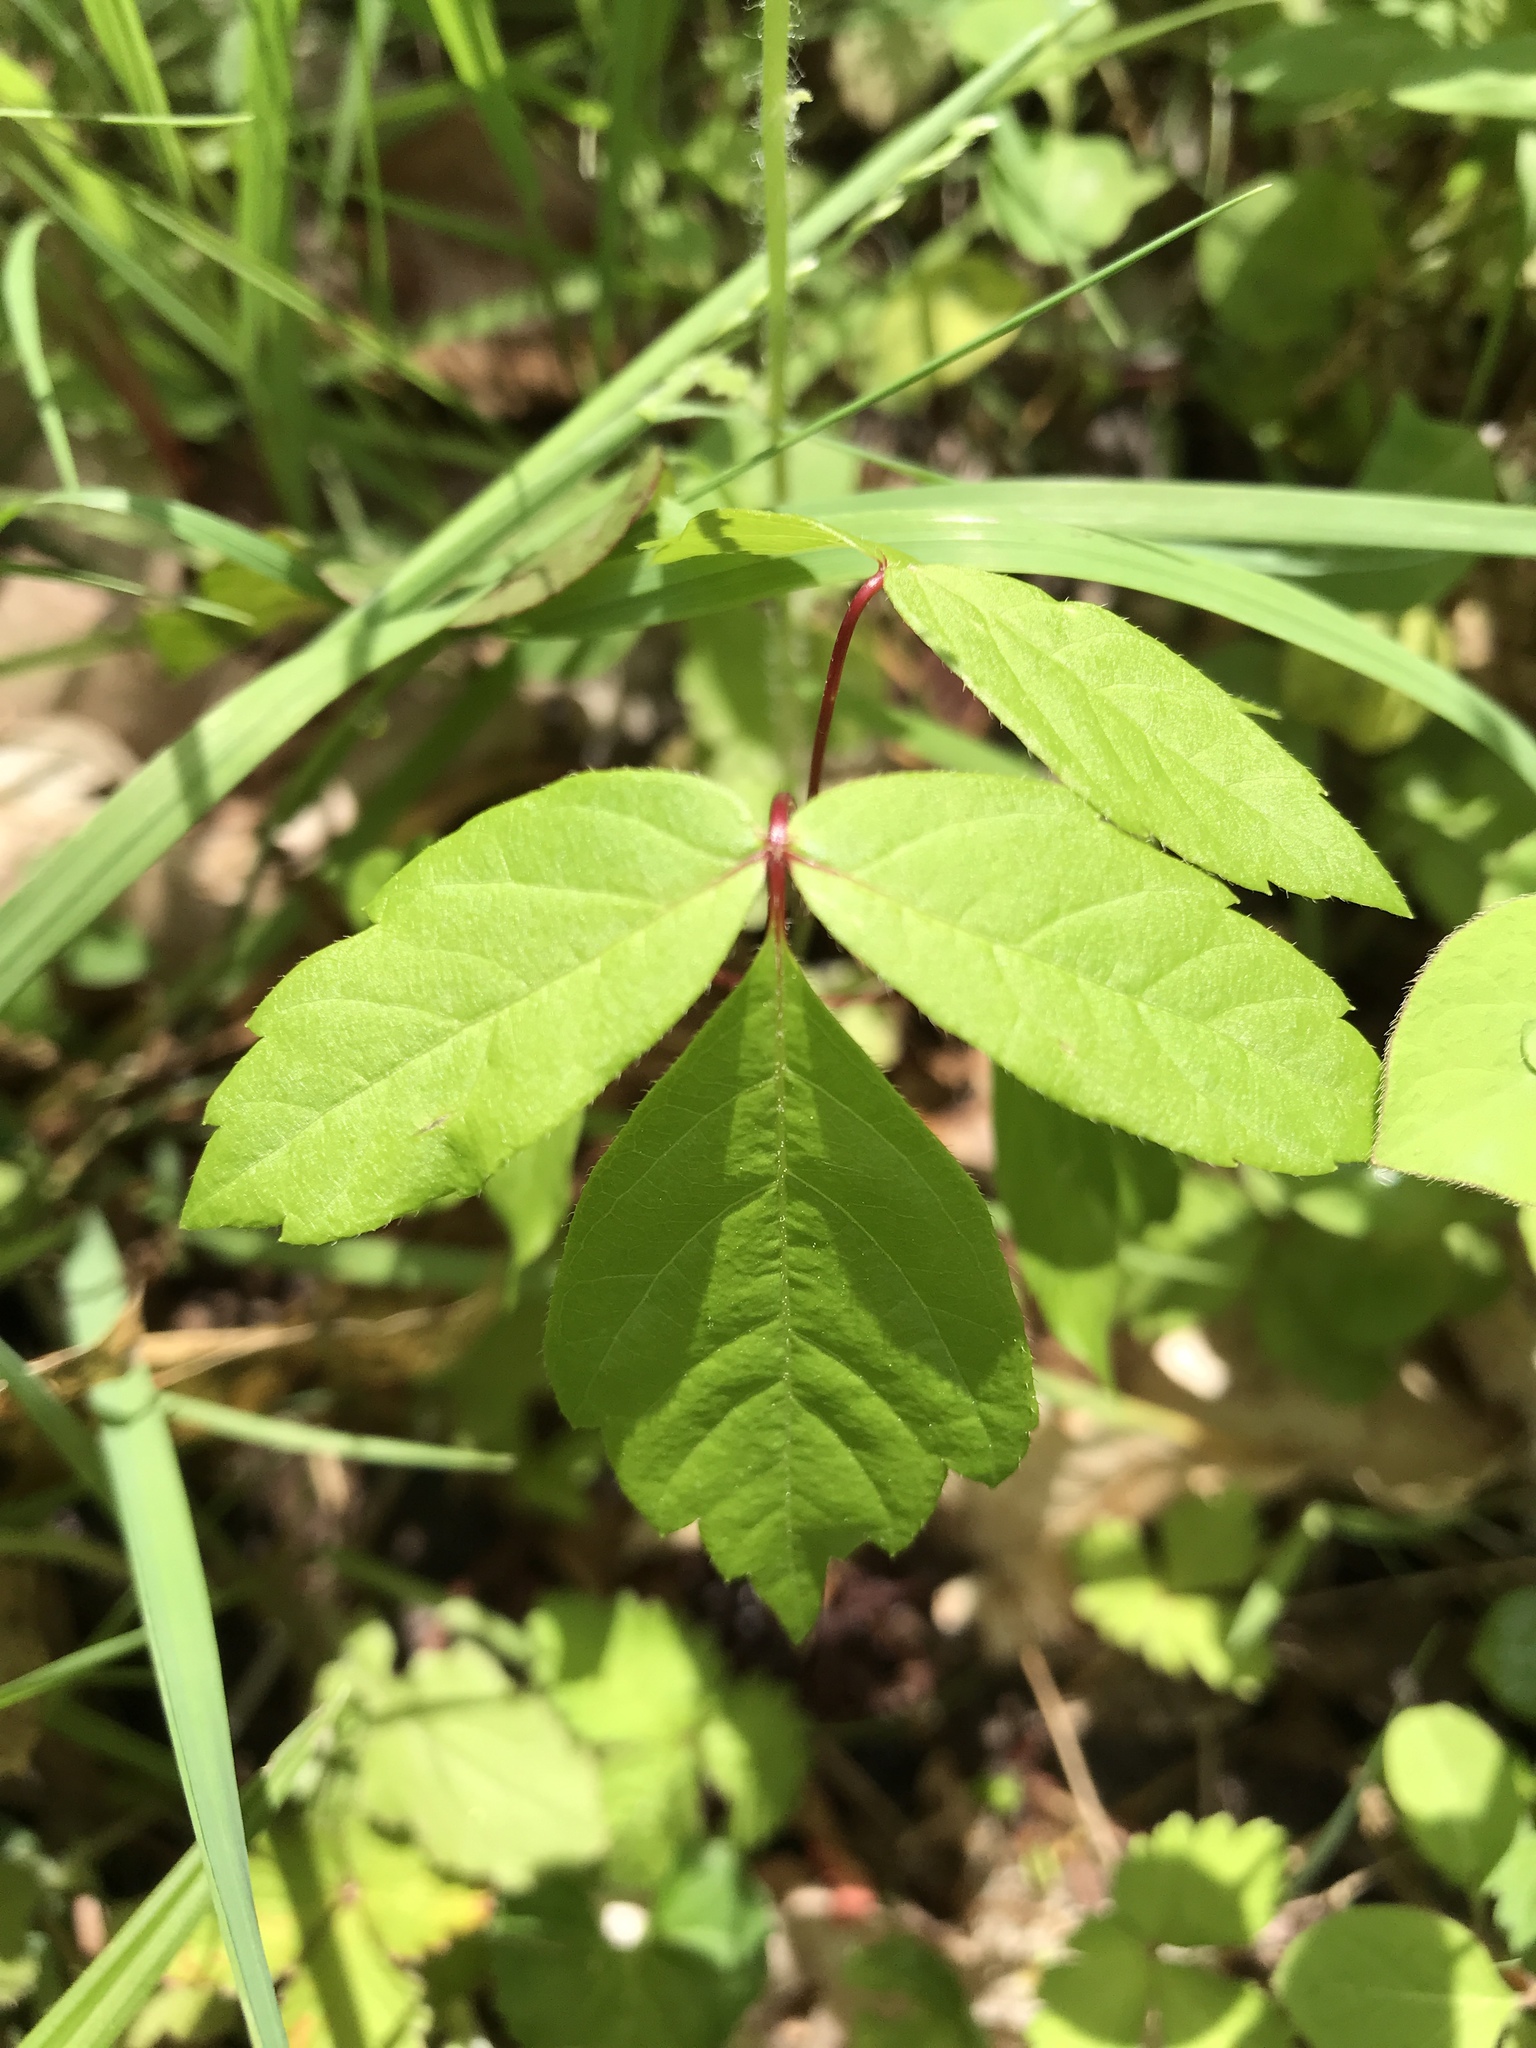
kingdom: Plantae
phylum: Tracheophyta
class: Magnoliopsida
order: Sapindales
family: Sapindaceae
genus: Acer
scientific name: Acer negundo
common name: Ashleaf maple
